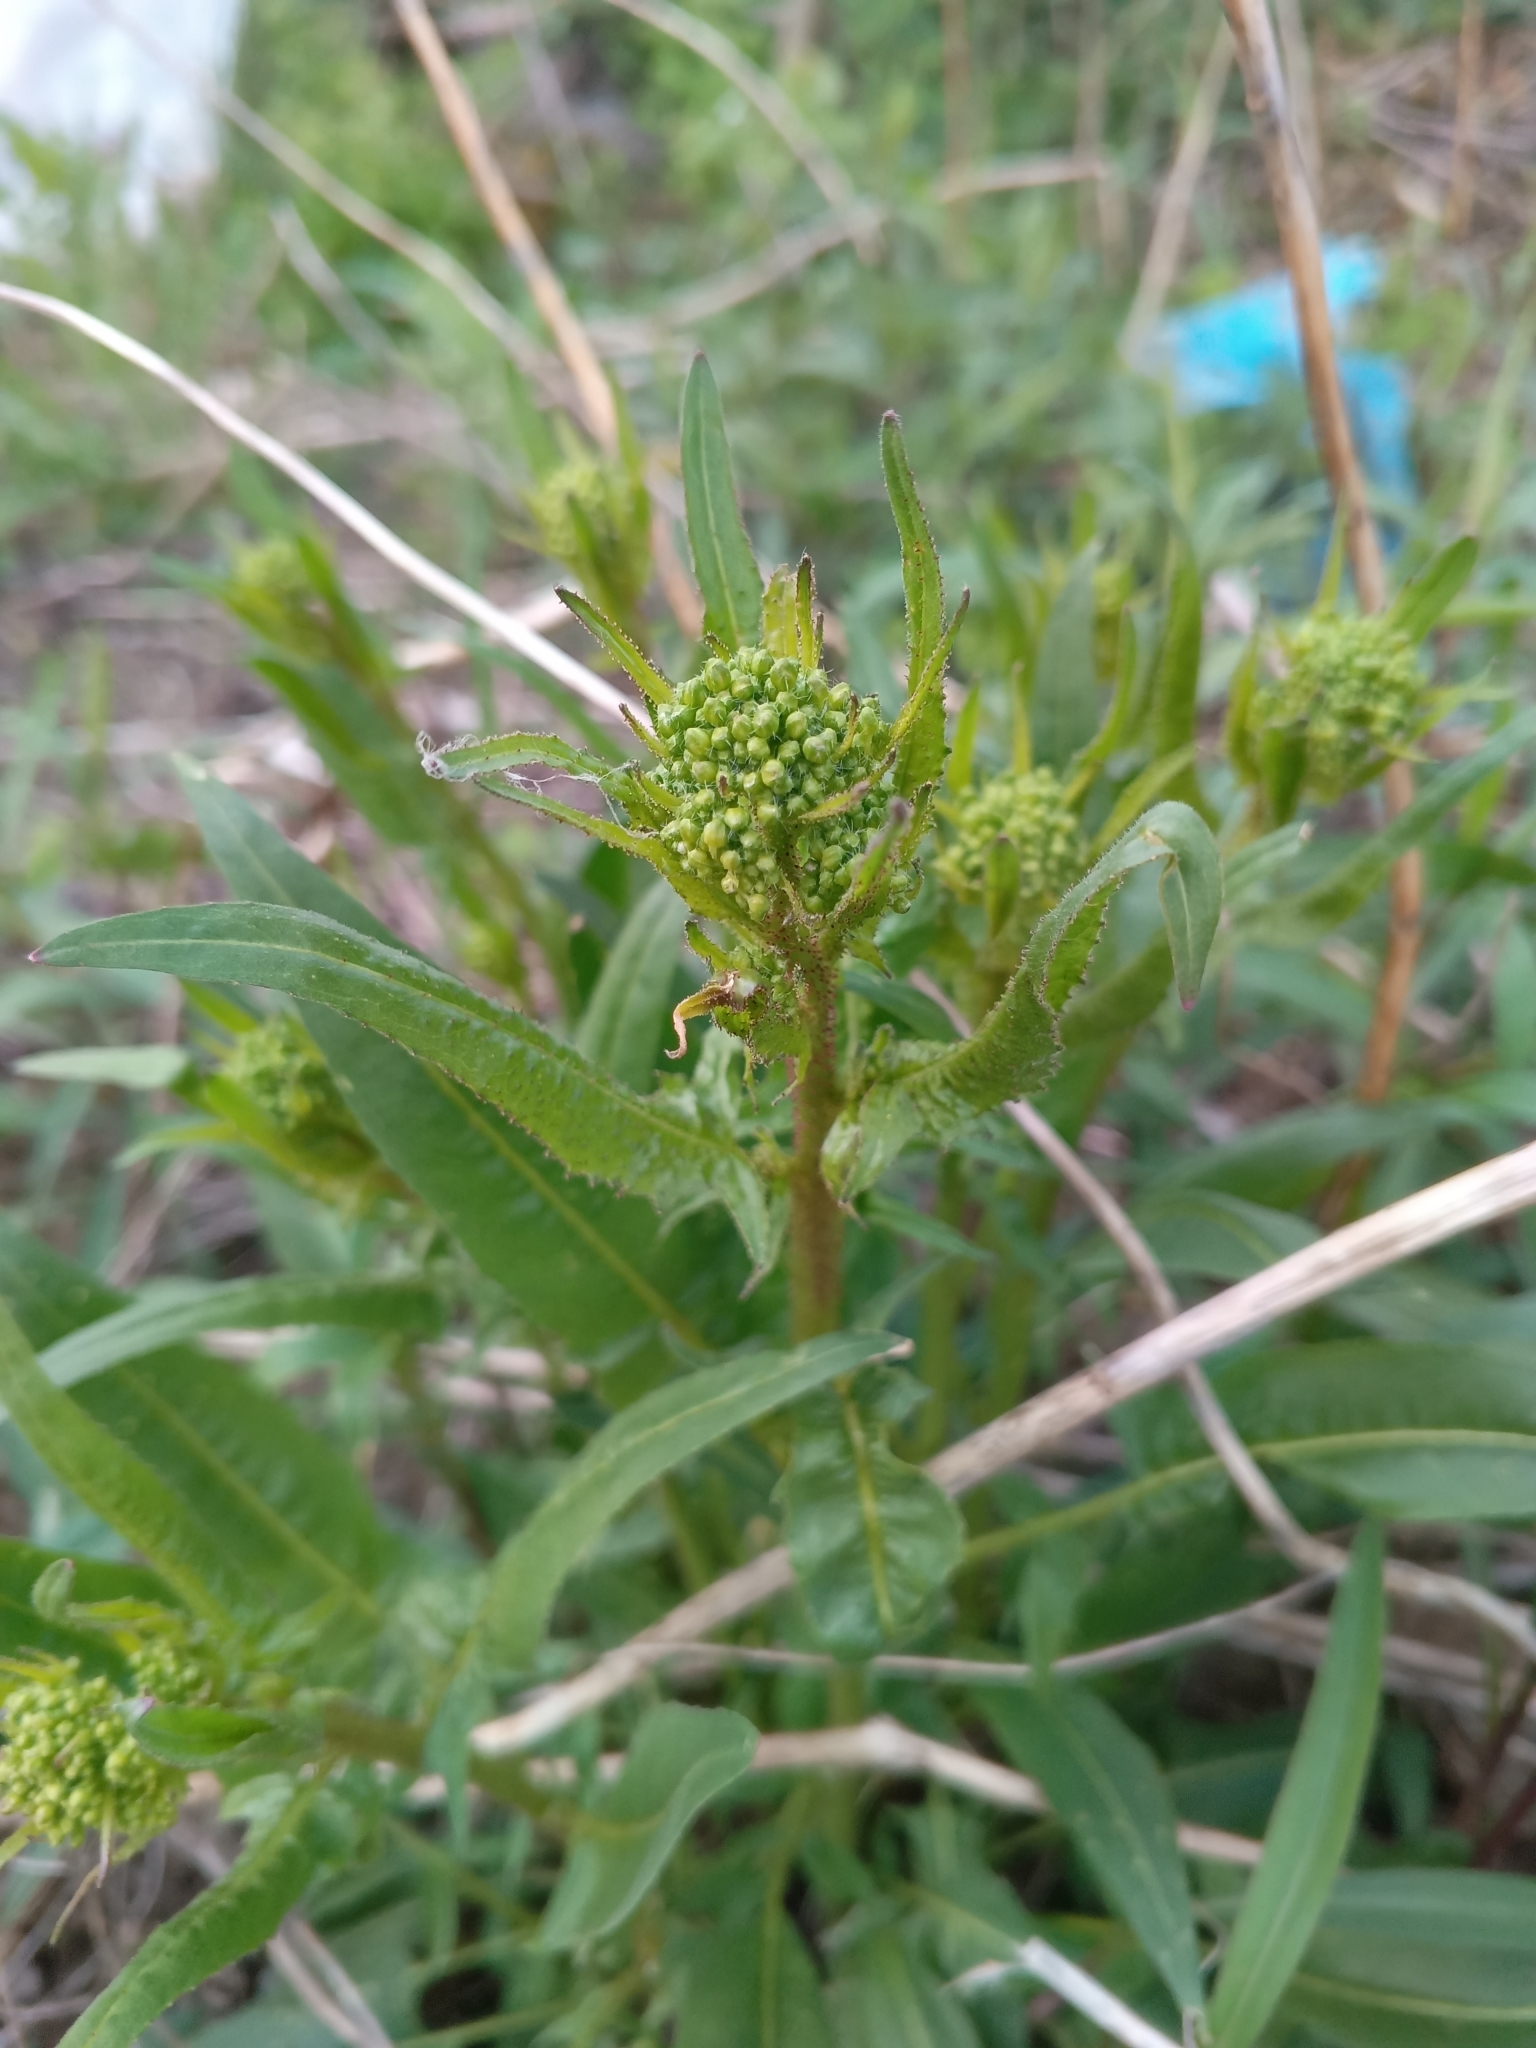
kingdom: Plantae
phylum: Tracheophyta
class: Magnoliopsida
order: Brassicales
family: Brassicaceae
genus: Bunias
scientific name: Bunias orientalis
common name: Warty-cabbage
